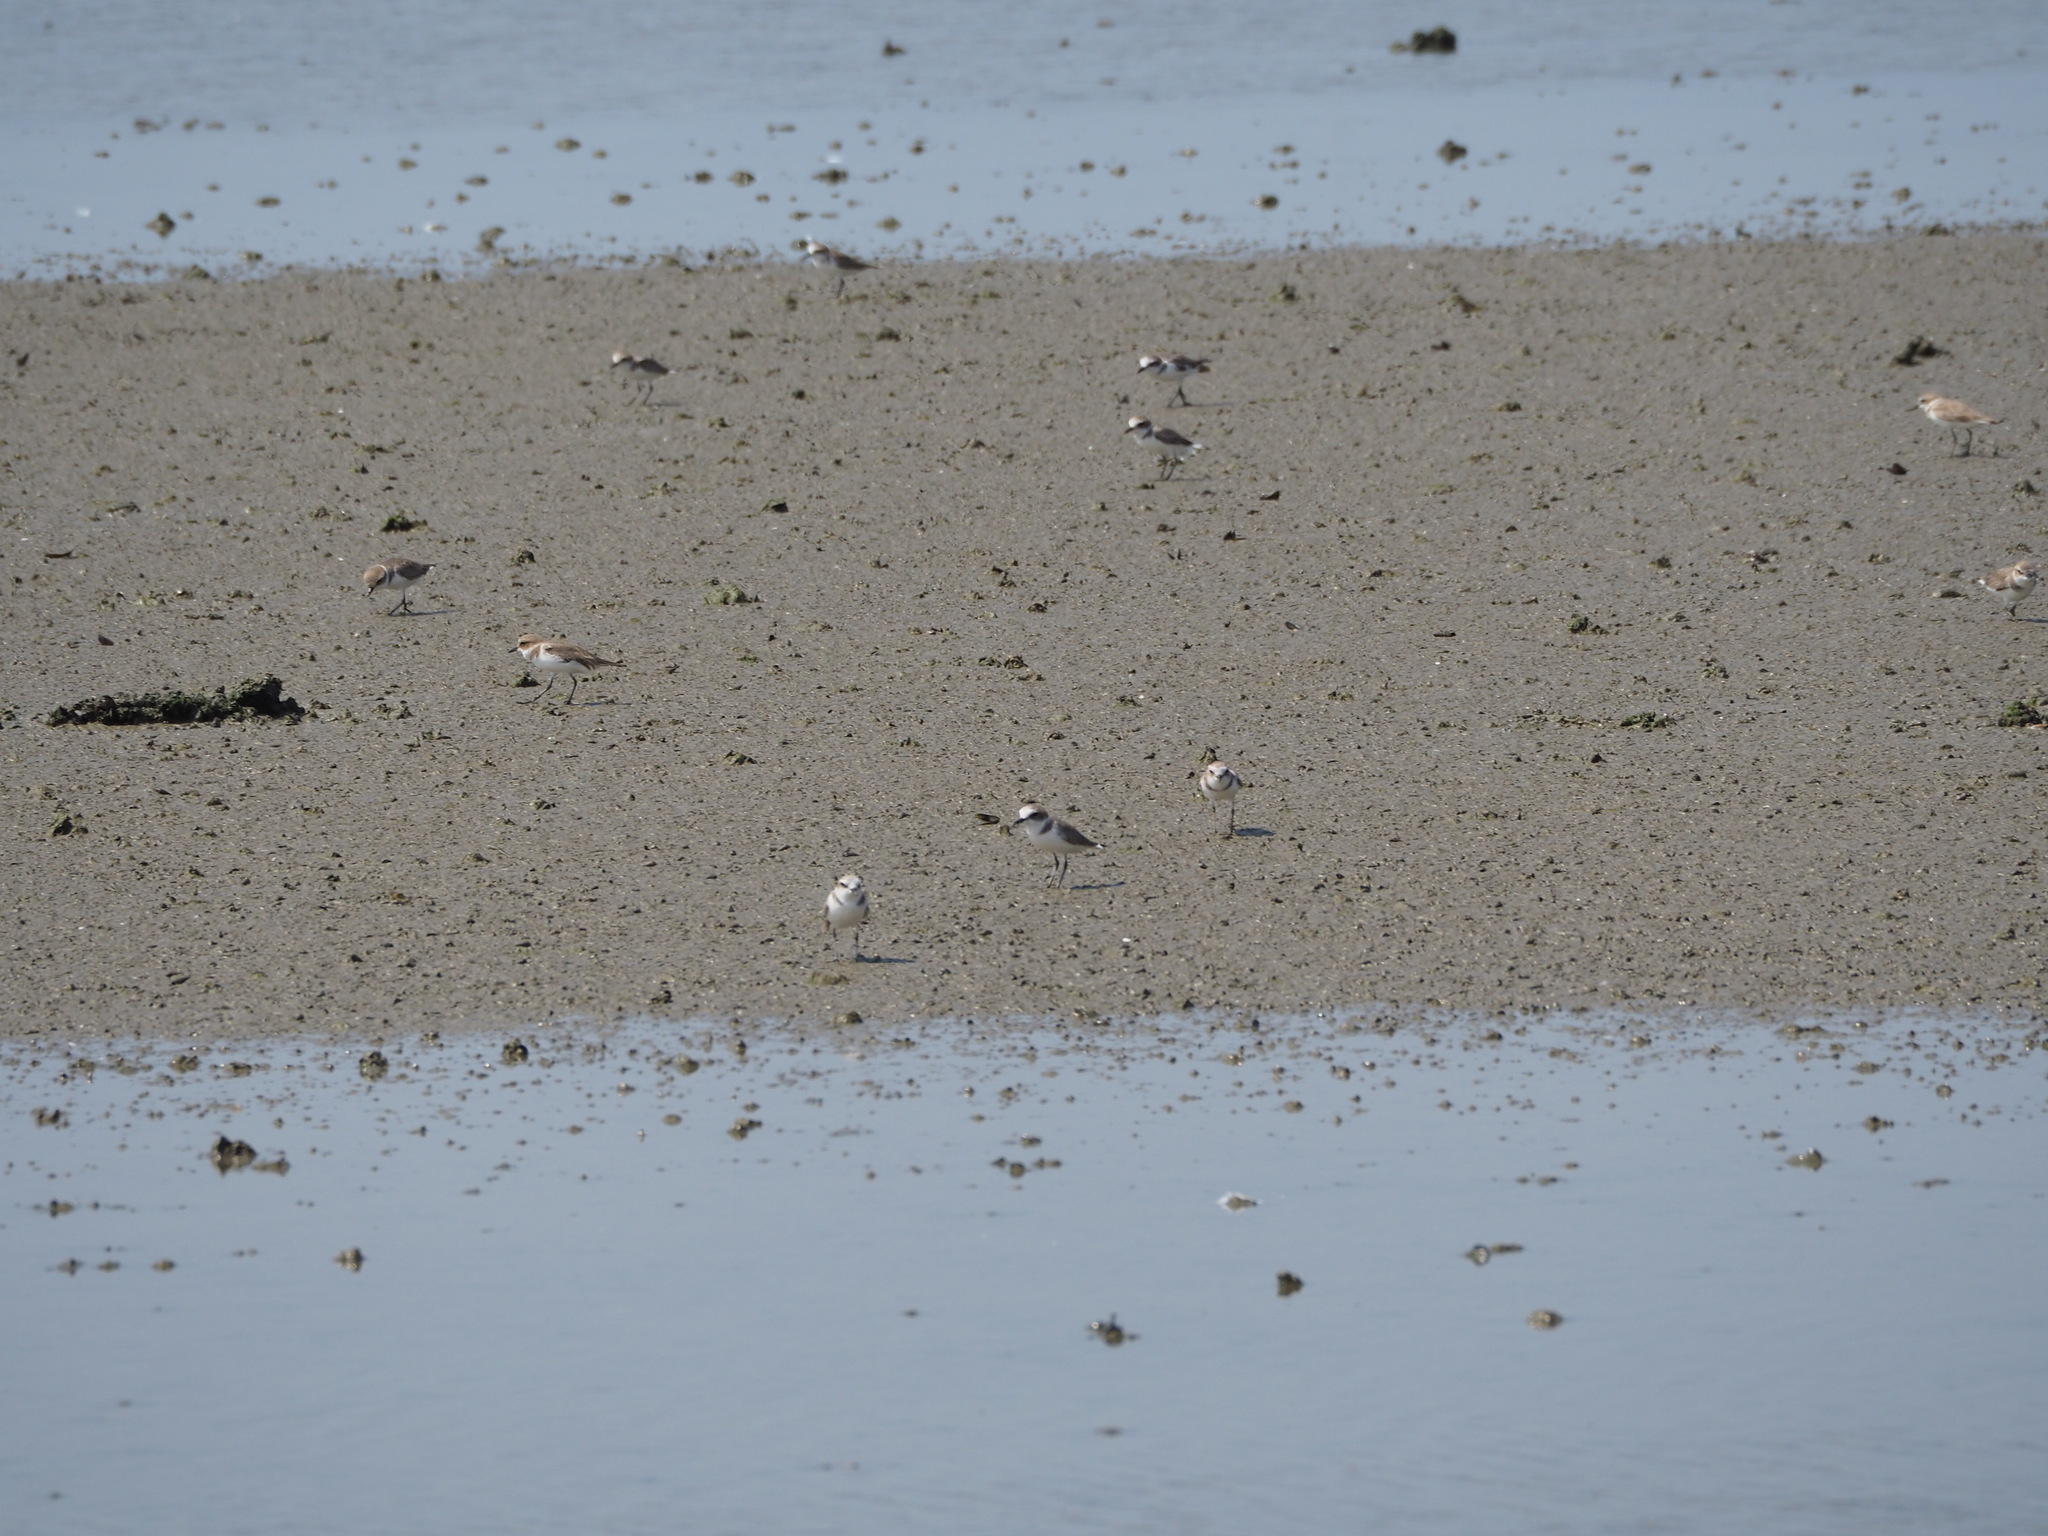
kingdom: Animalia
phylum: Chordata
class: Aves
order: Charadriiformes
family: Charadriidae
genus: Charadrius
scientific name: Charadrius alexandrinus
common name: Kentish plover
